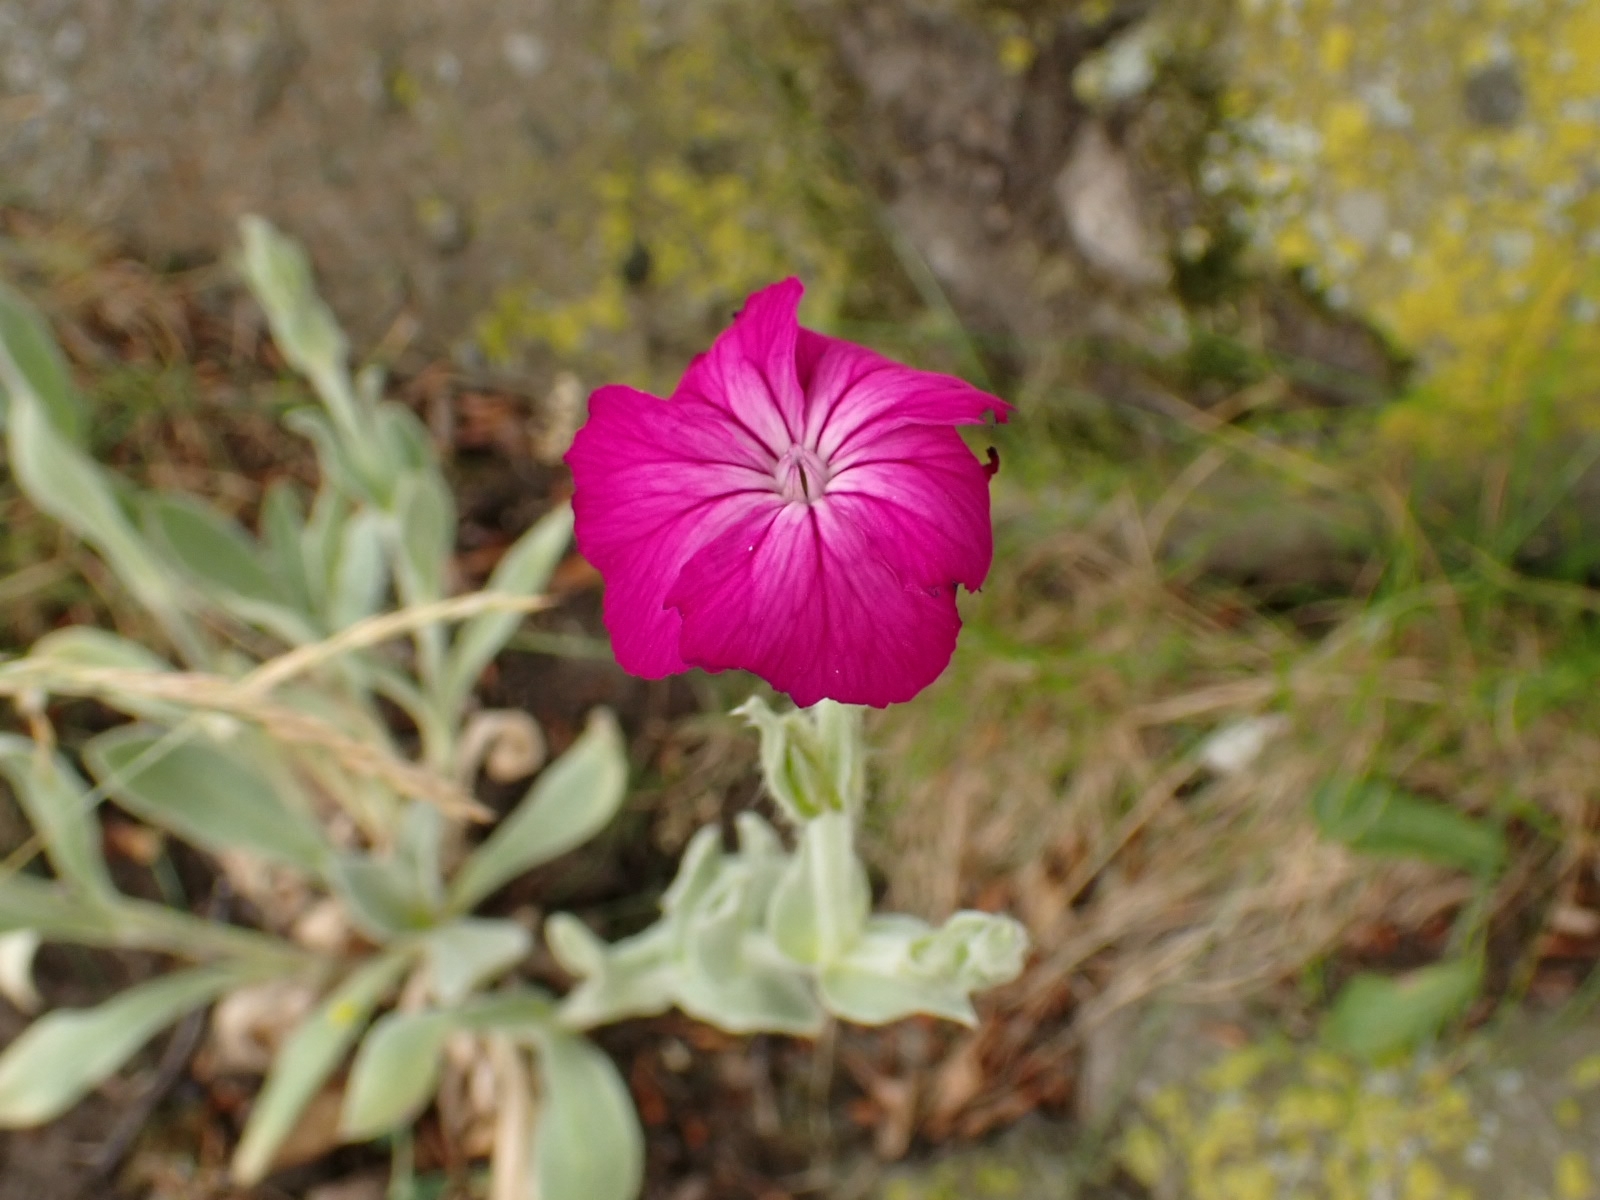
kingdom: Plantae
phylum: Tracheophyta
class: Magnoliopsida
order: Caryophyllales
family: Caryophyllaceae
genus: Silene
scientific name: Silene coronaria
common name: Rose campion
